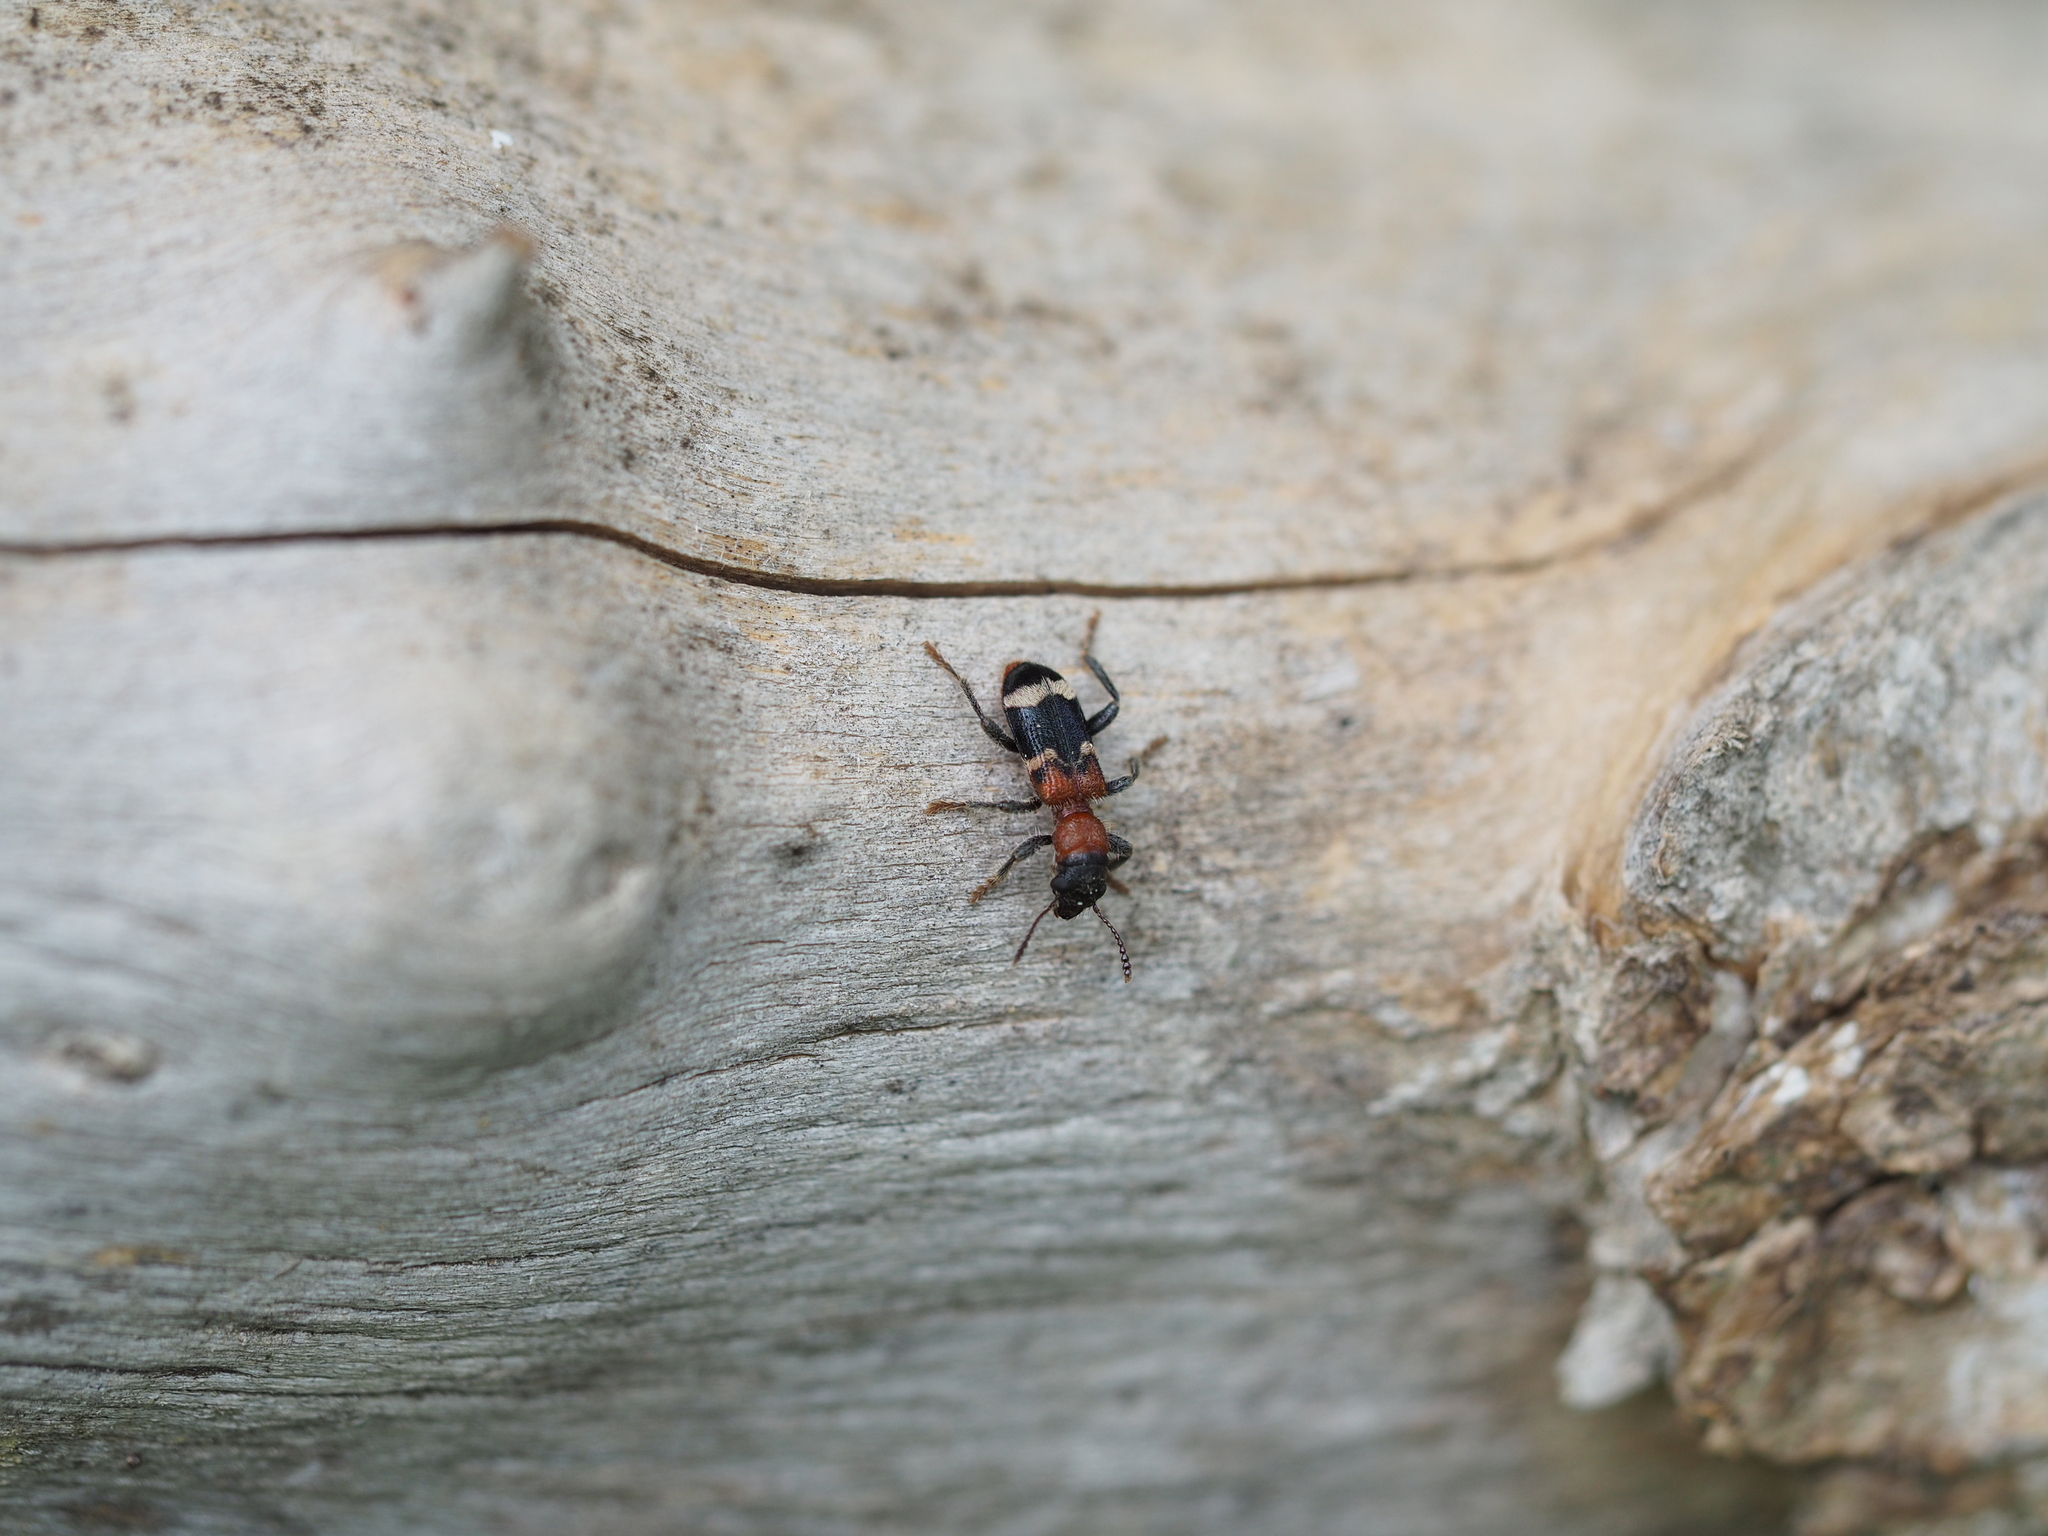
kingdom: Animalia
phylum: Arthropoda
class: Insecta
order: Coleoptera
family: Cleridae
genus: Thanasimus
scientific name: Thanasimus formicarius
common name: Ant beetle
